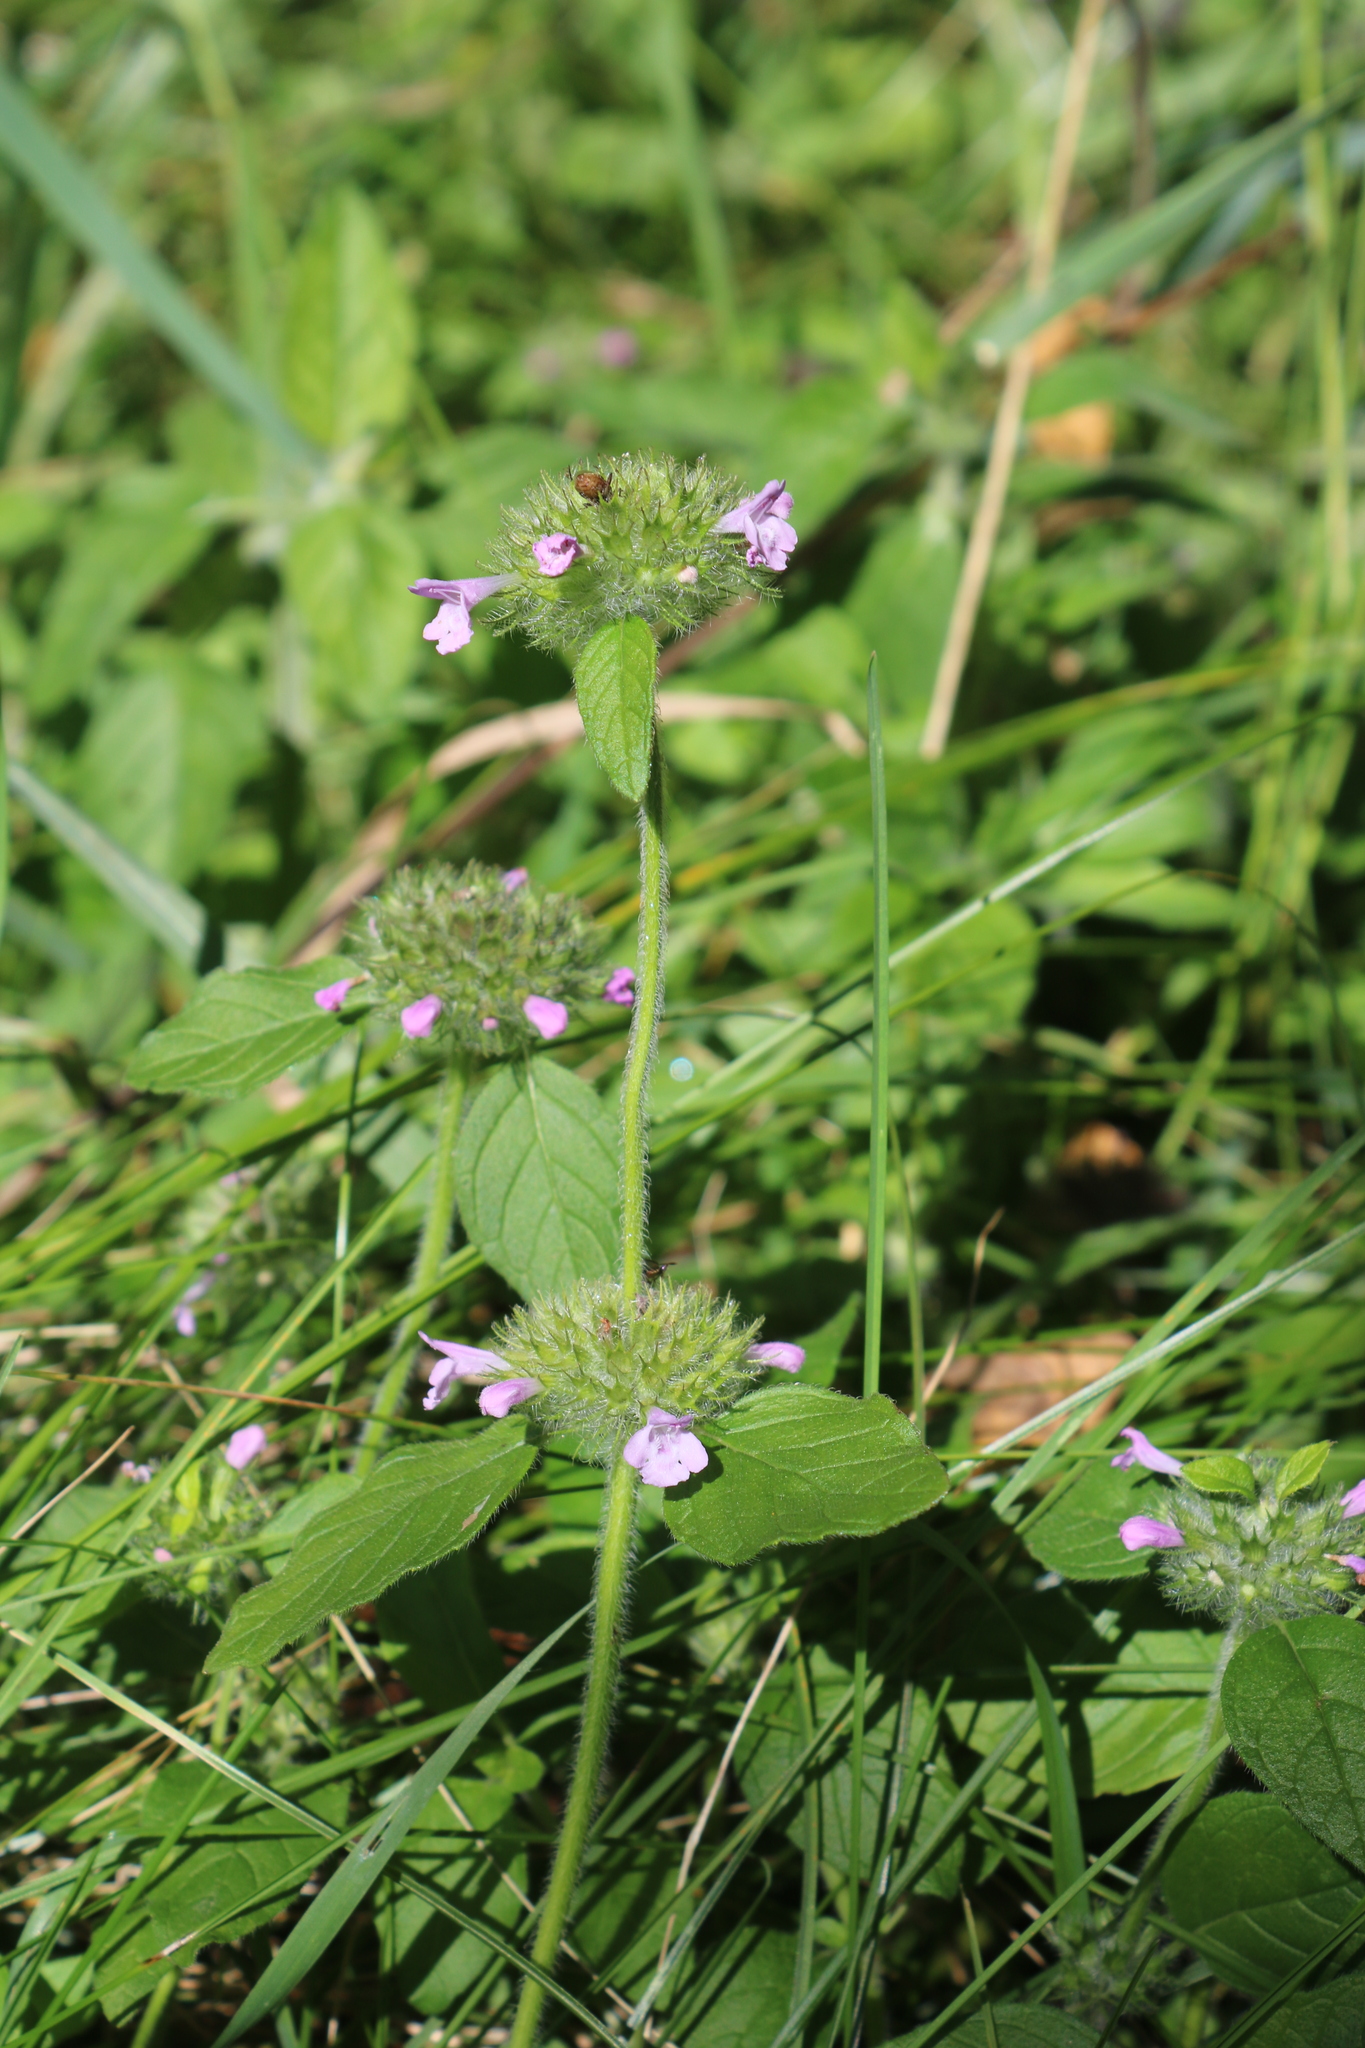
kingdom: Plantae
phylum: Tracheophyta
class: Magnoliopsida
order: Lamiales
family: Lamiaceae
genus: Clinopodium
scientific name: Clinopodium vulgare
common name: Wild basil
